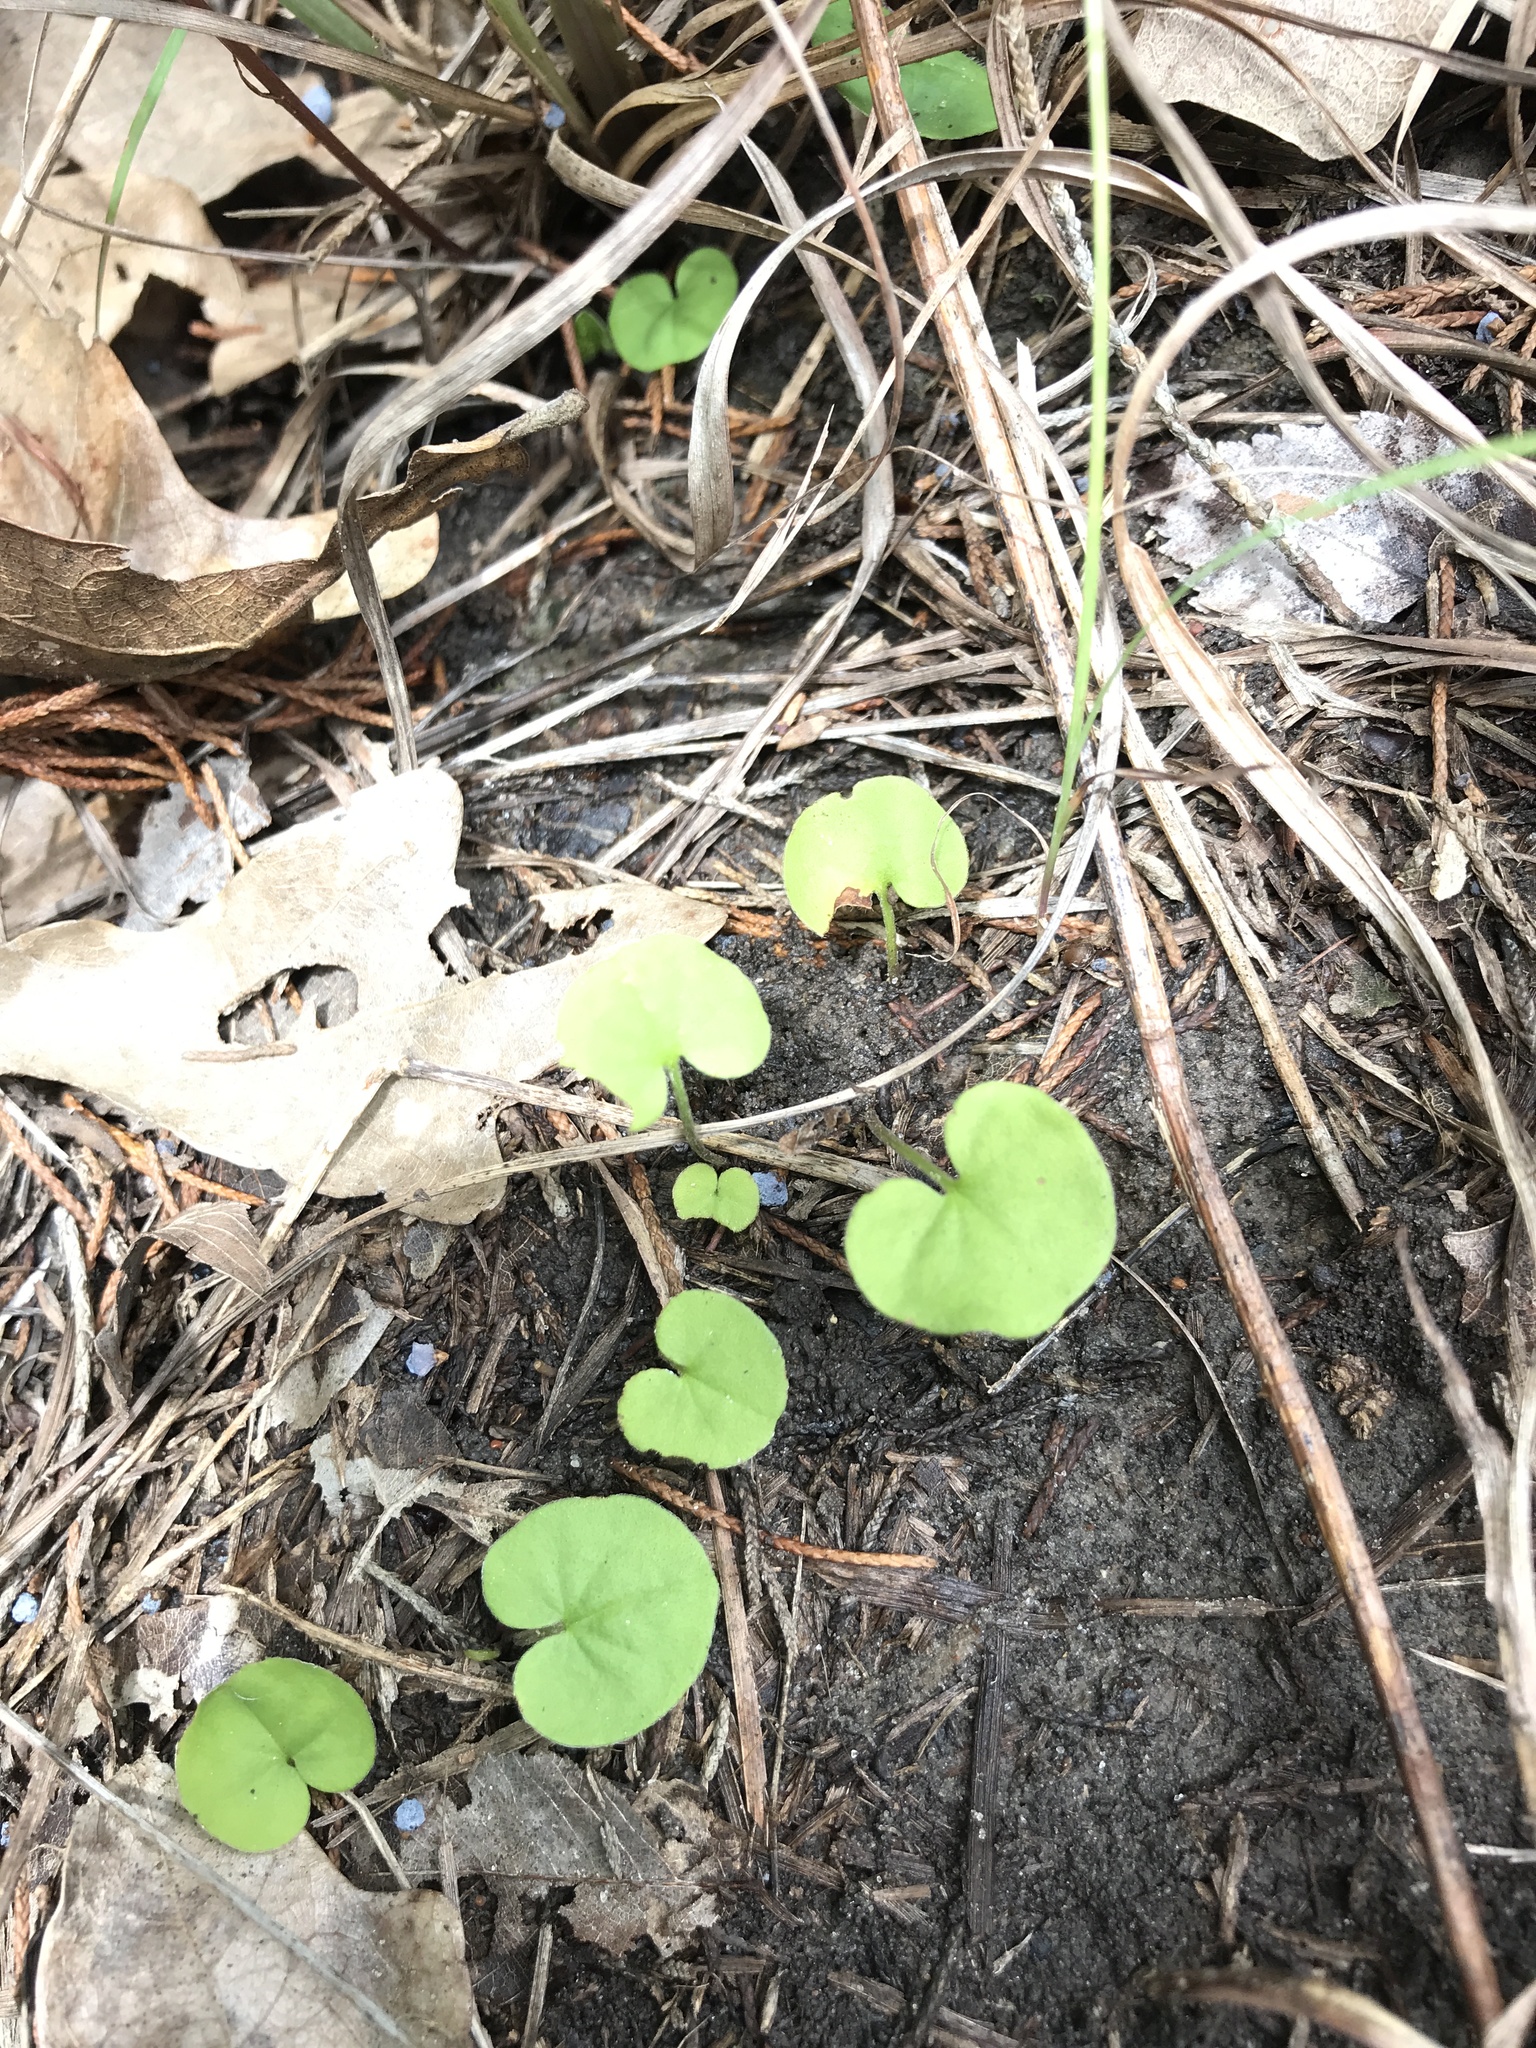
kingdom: Plantae
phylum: Tracheophyta
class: Magnoliopsida
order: Solanales
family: Convolvulaceae
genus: Dichondra
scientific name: Dichondra carolinensis
